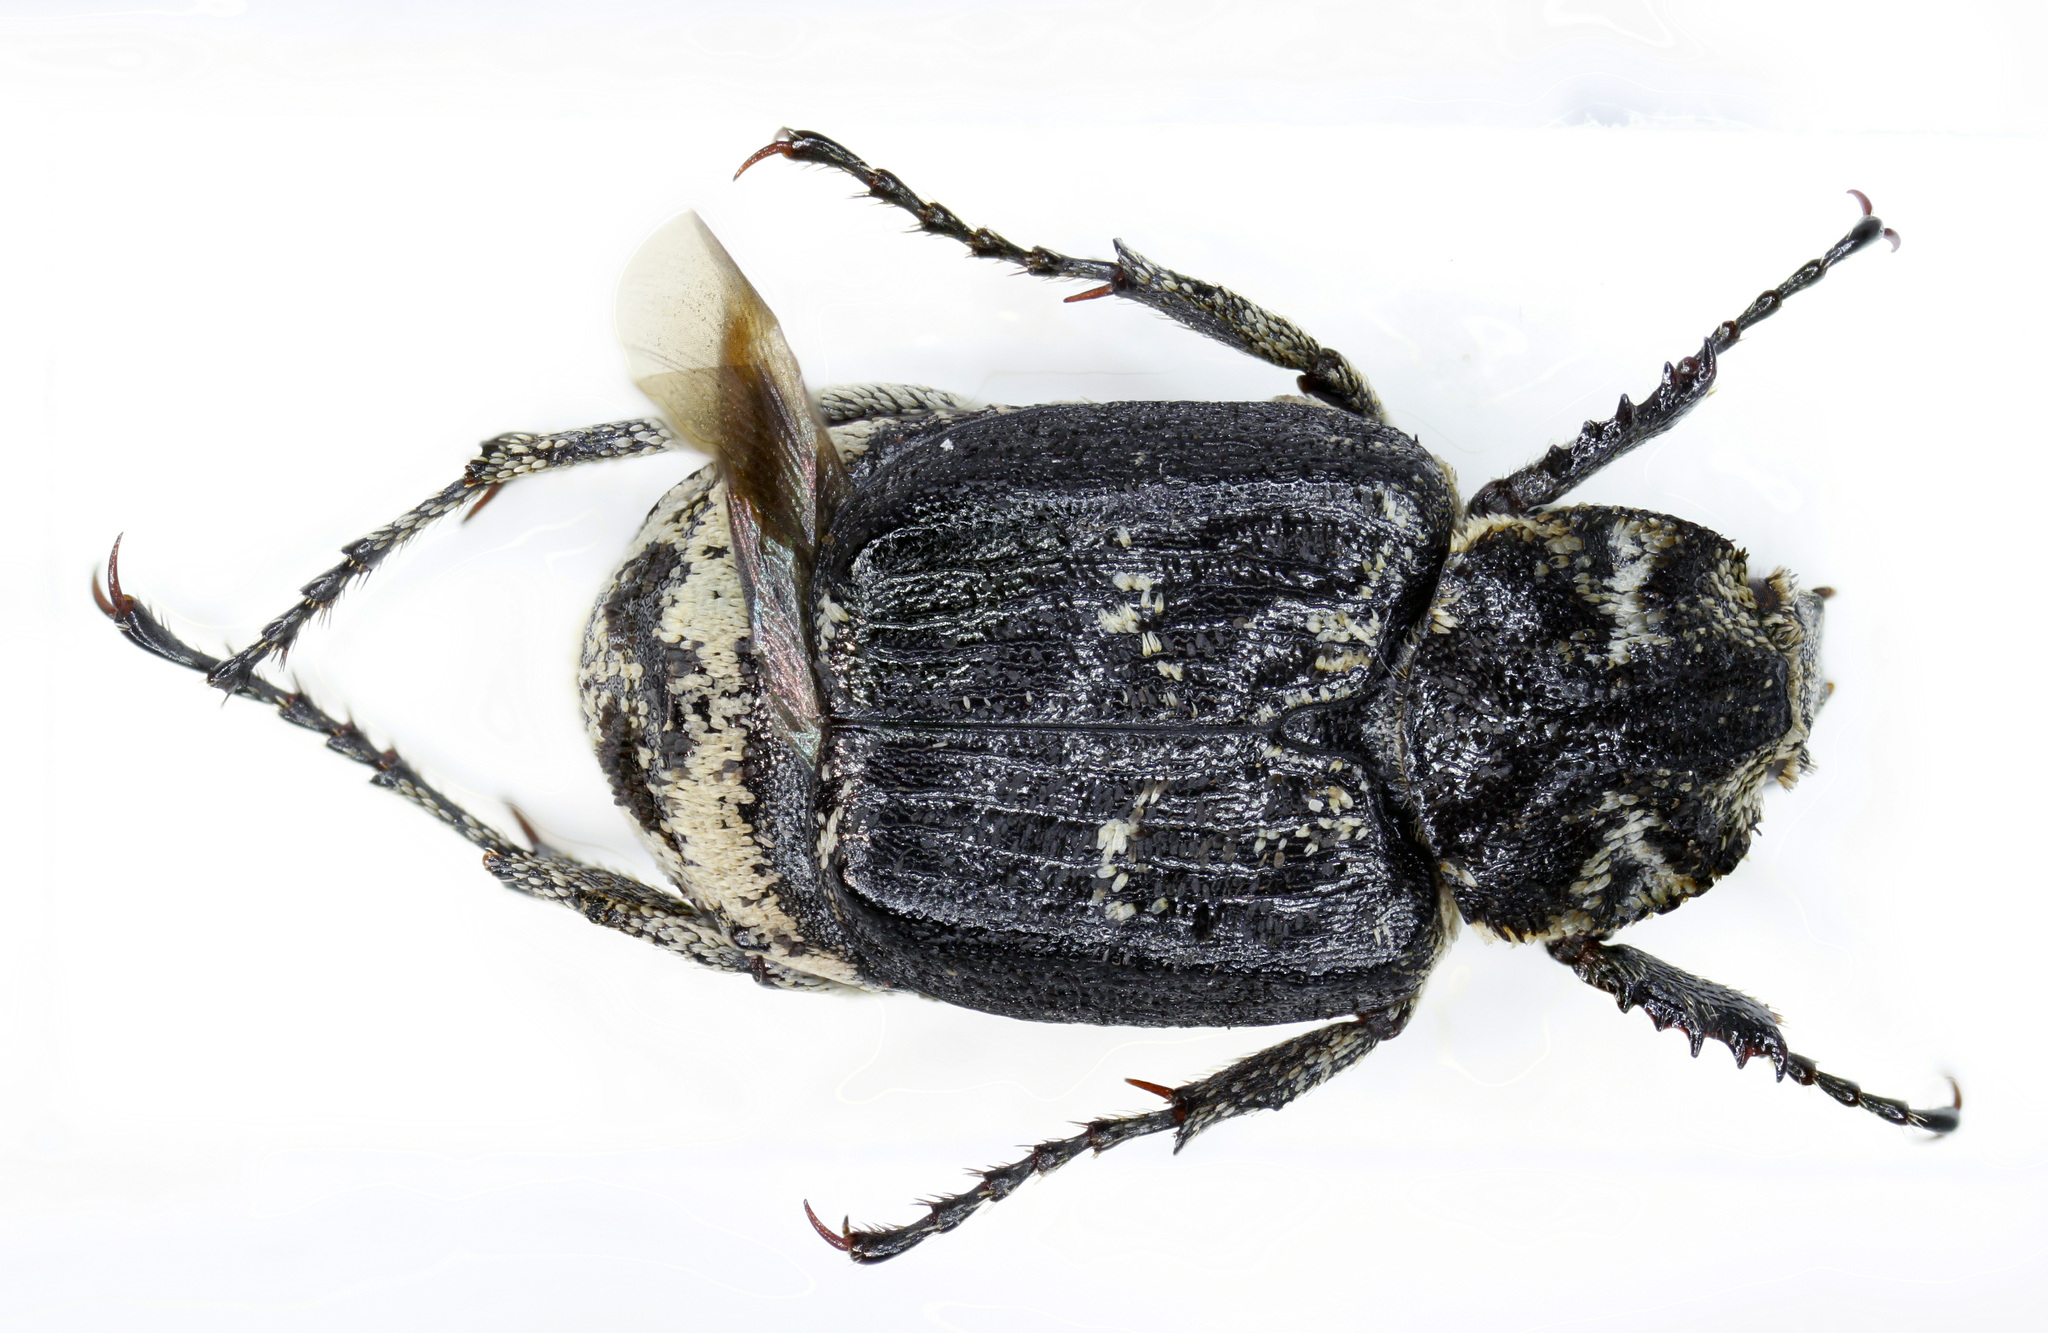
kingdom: Animalia
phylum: Arthropoda
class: Insecta
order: Coleoptera
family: Scarabaeidae
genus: Valgus
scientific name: Valgus hemipterus
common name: Bug flower chafer
